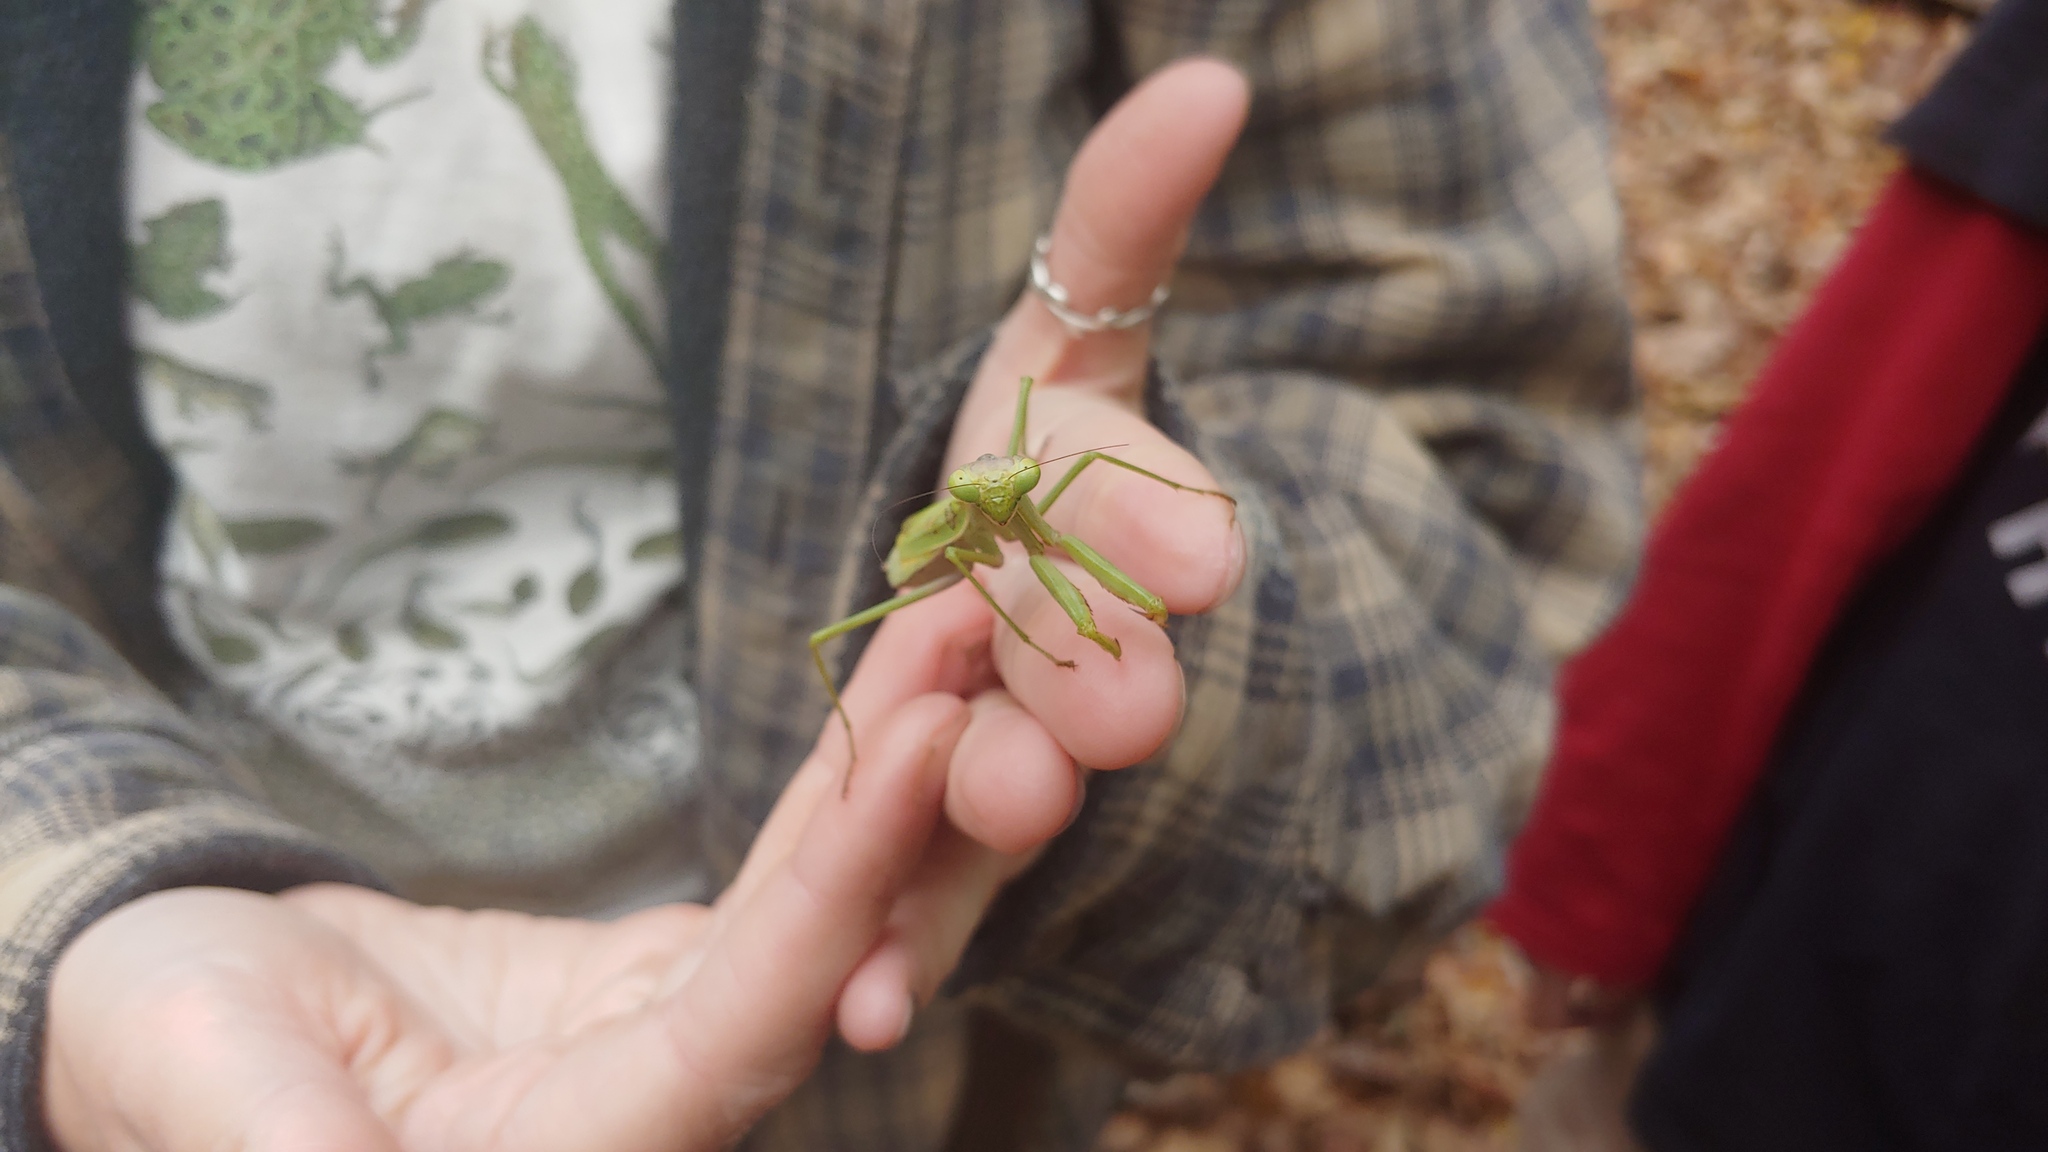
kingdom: Animalia
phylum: Arthropoda
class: Insecta
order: Mantodea
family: Mantidae
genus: Stagmomantis
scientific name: Stagmomantis carolina
